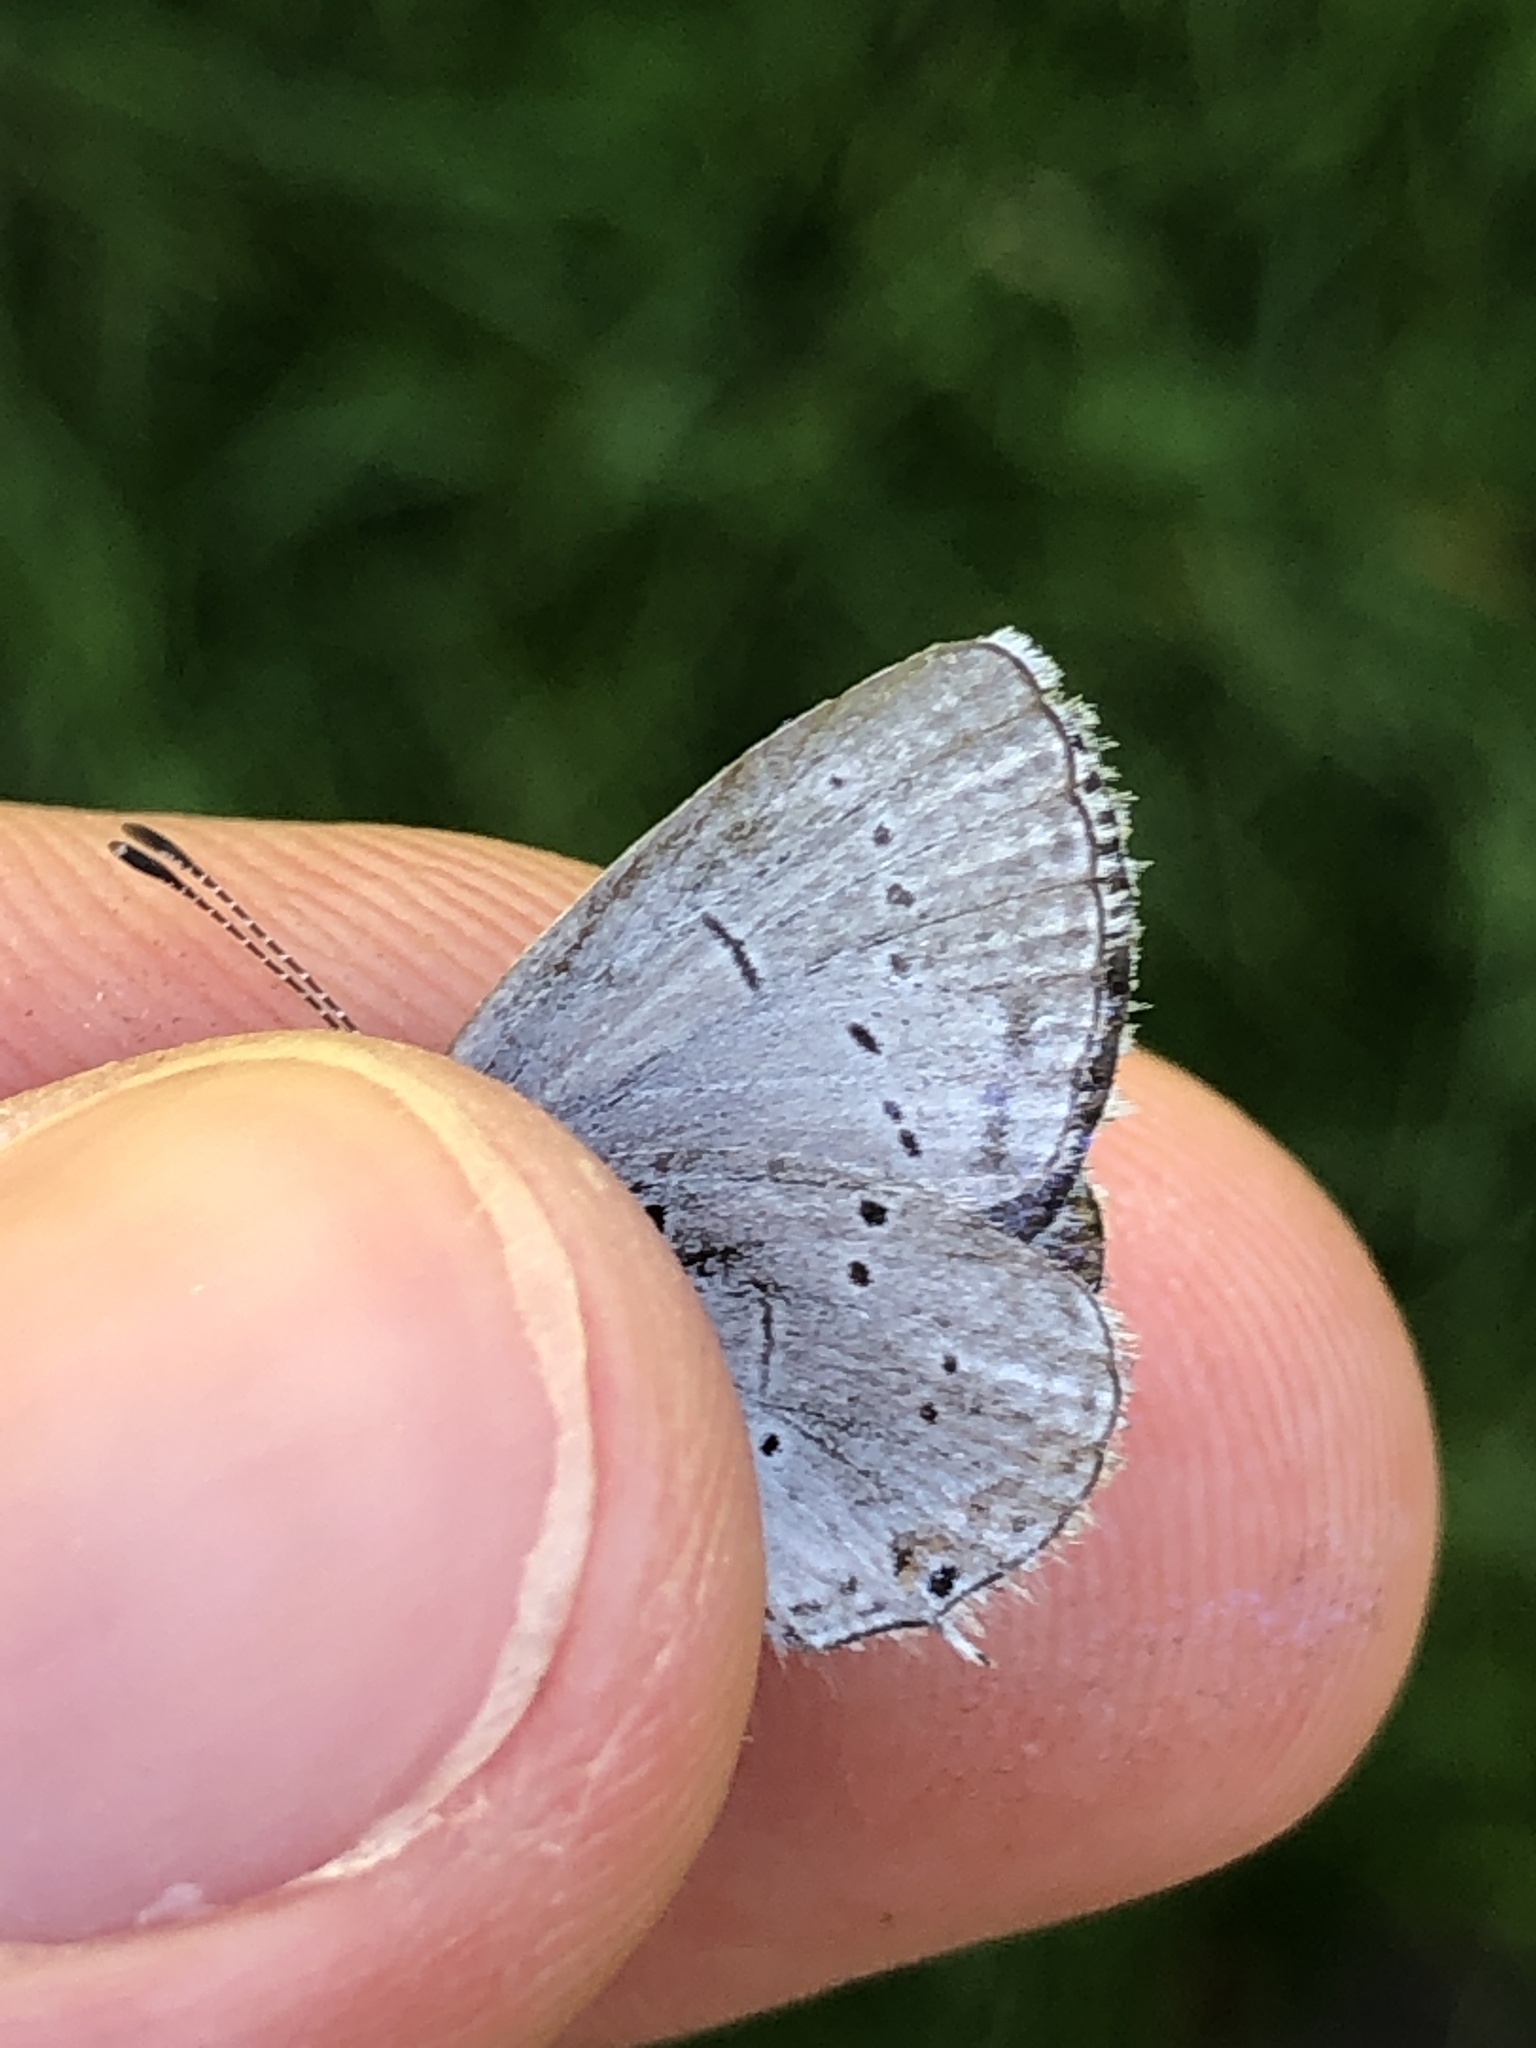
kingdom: Animalia
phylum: Arthropoda
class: Insecta
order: Lepidoptera
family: Lycaenidae
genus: Elkalyce
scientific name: Elkalyce alcetas
